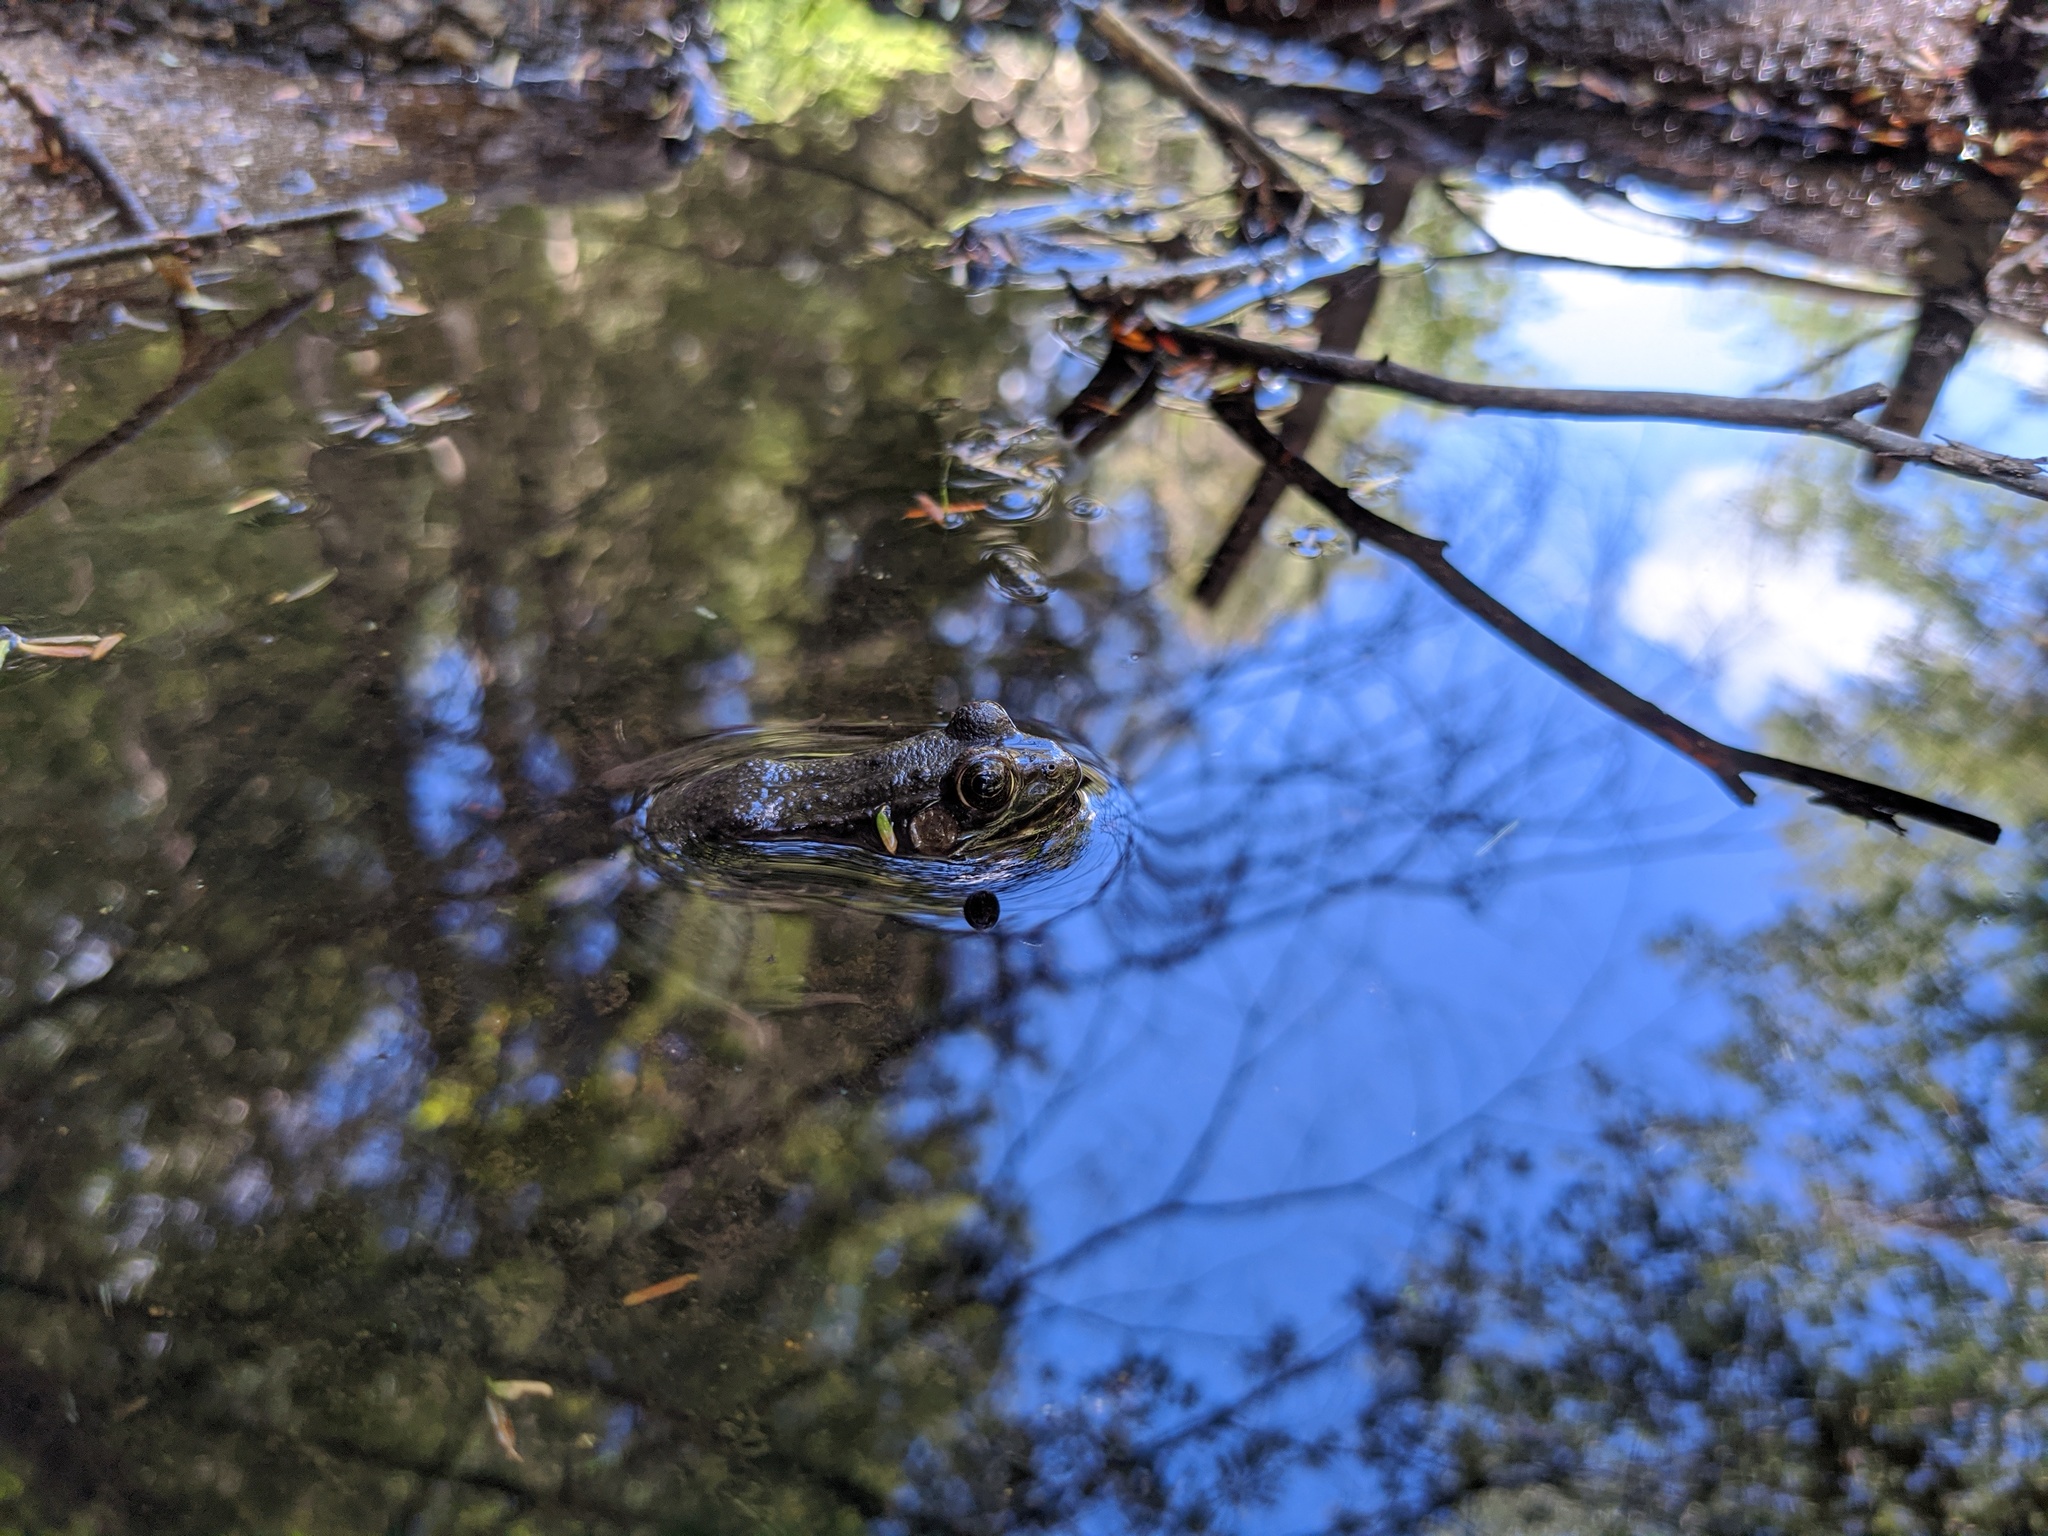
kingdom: Animalia
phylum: Chordata
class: Amphibia
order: Anura
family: Ranidae
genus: Lithobates
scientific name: Lithobates clamitans
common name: Green frog
